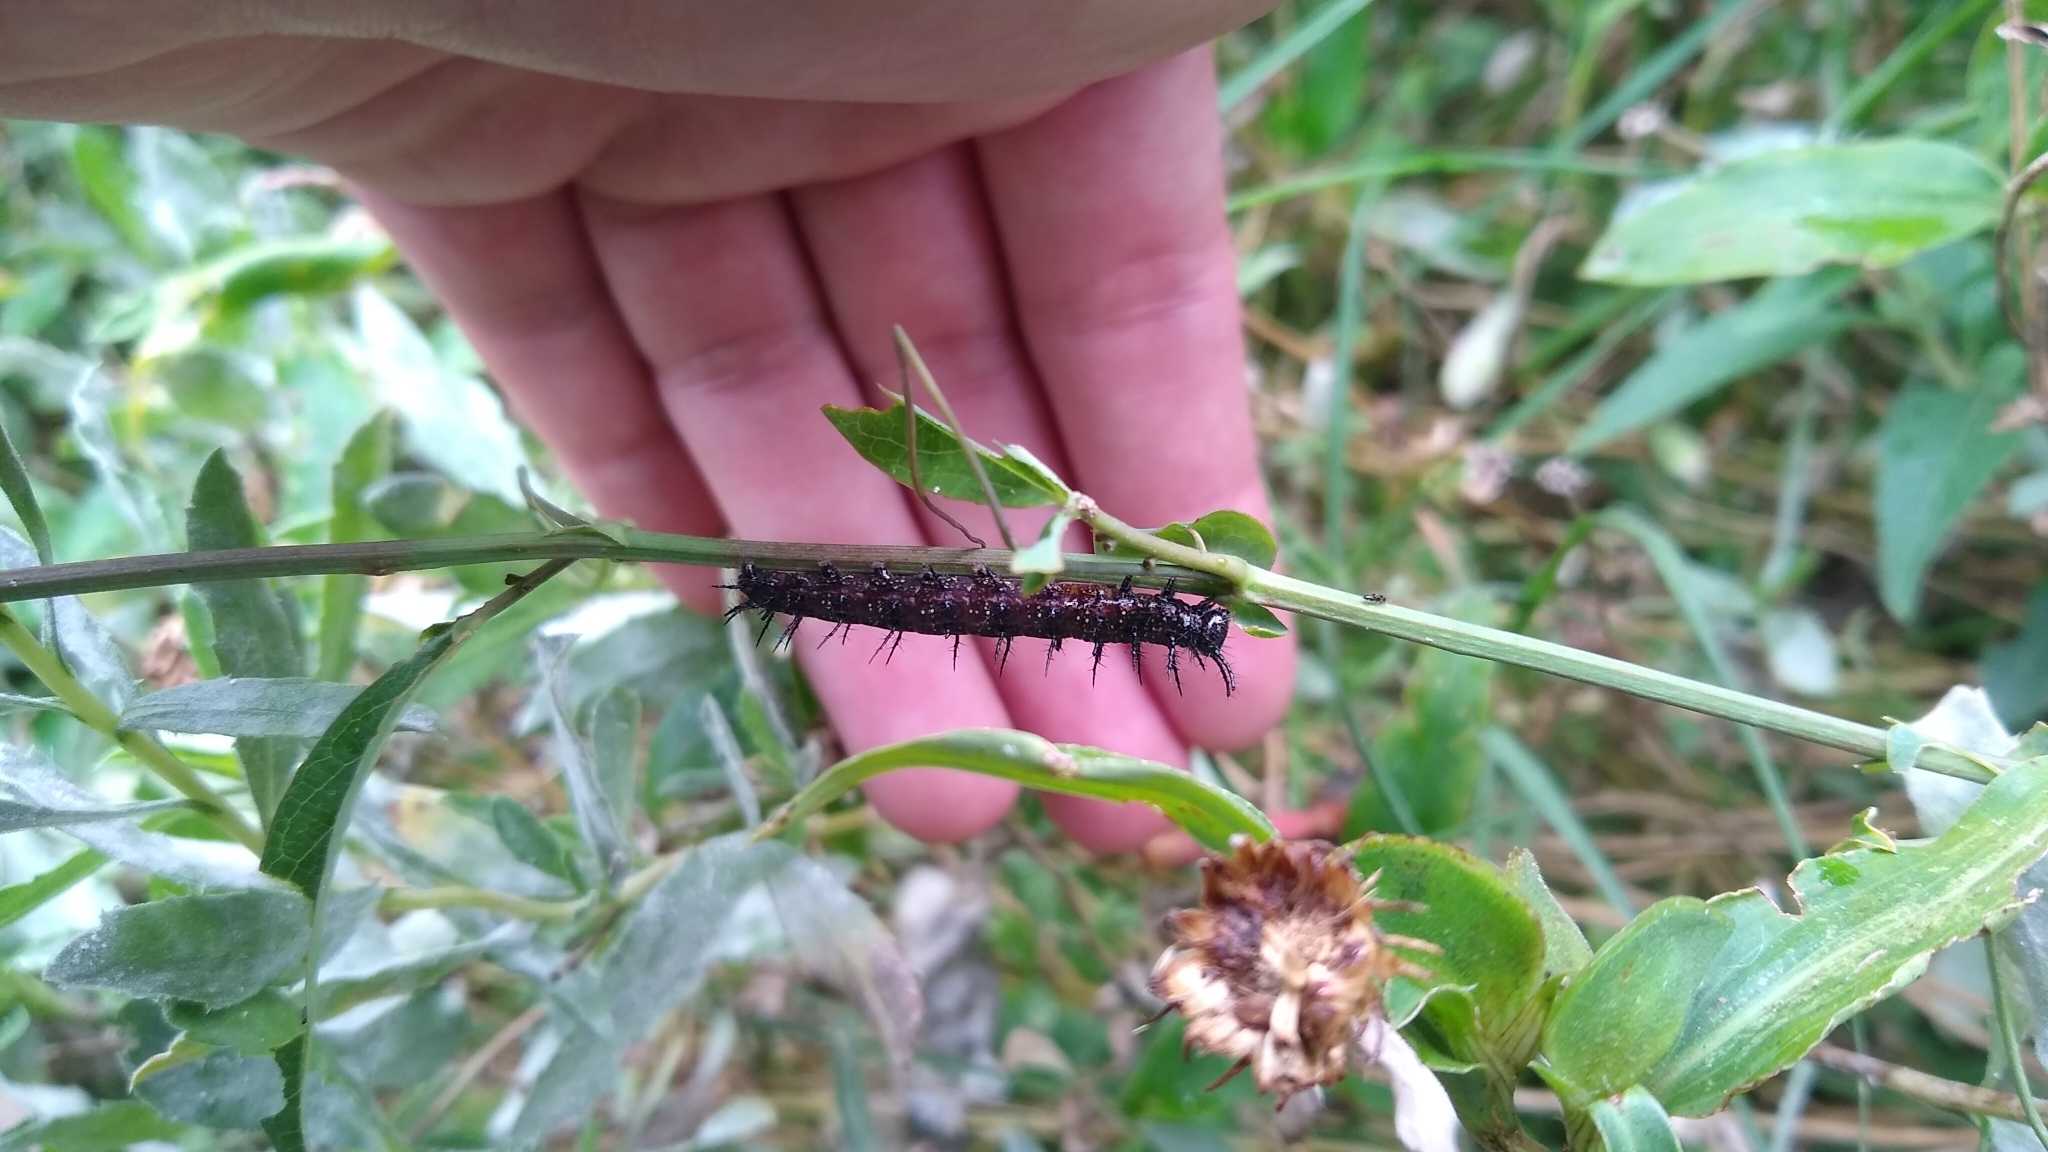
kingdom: Animalia
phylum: Arthropoda
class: Insecta
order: Lepidoptera
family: Nymphalidae
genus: Dione
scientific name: Dione vanillae
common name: Gulf fritillary
